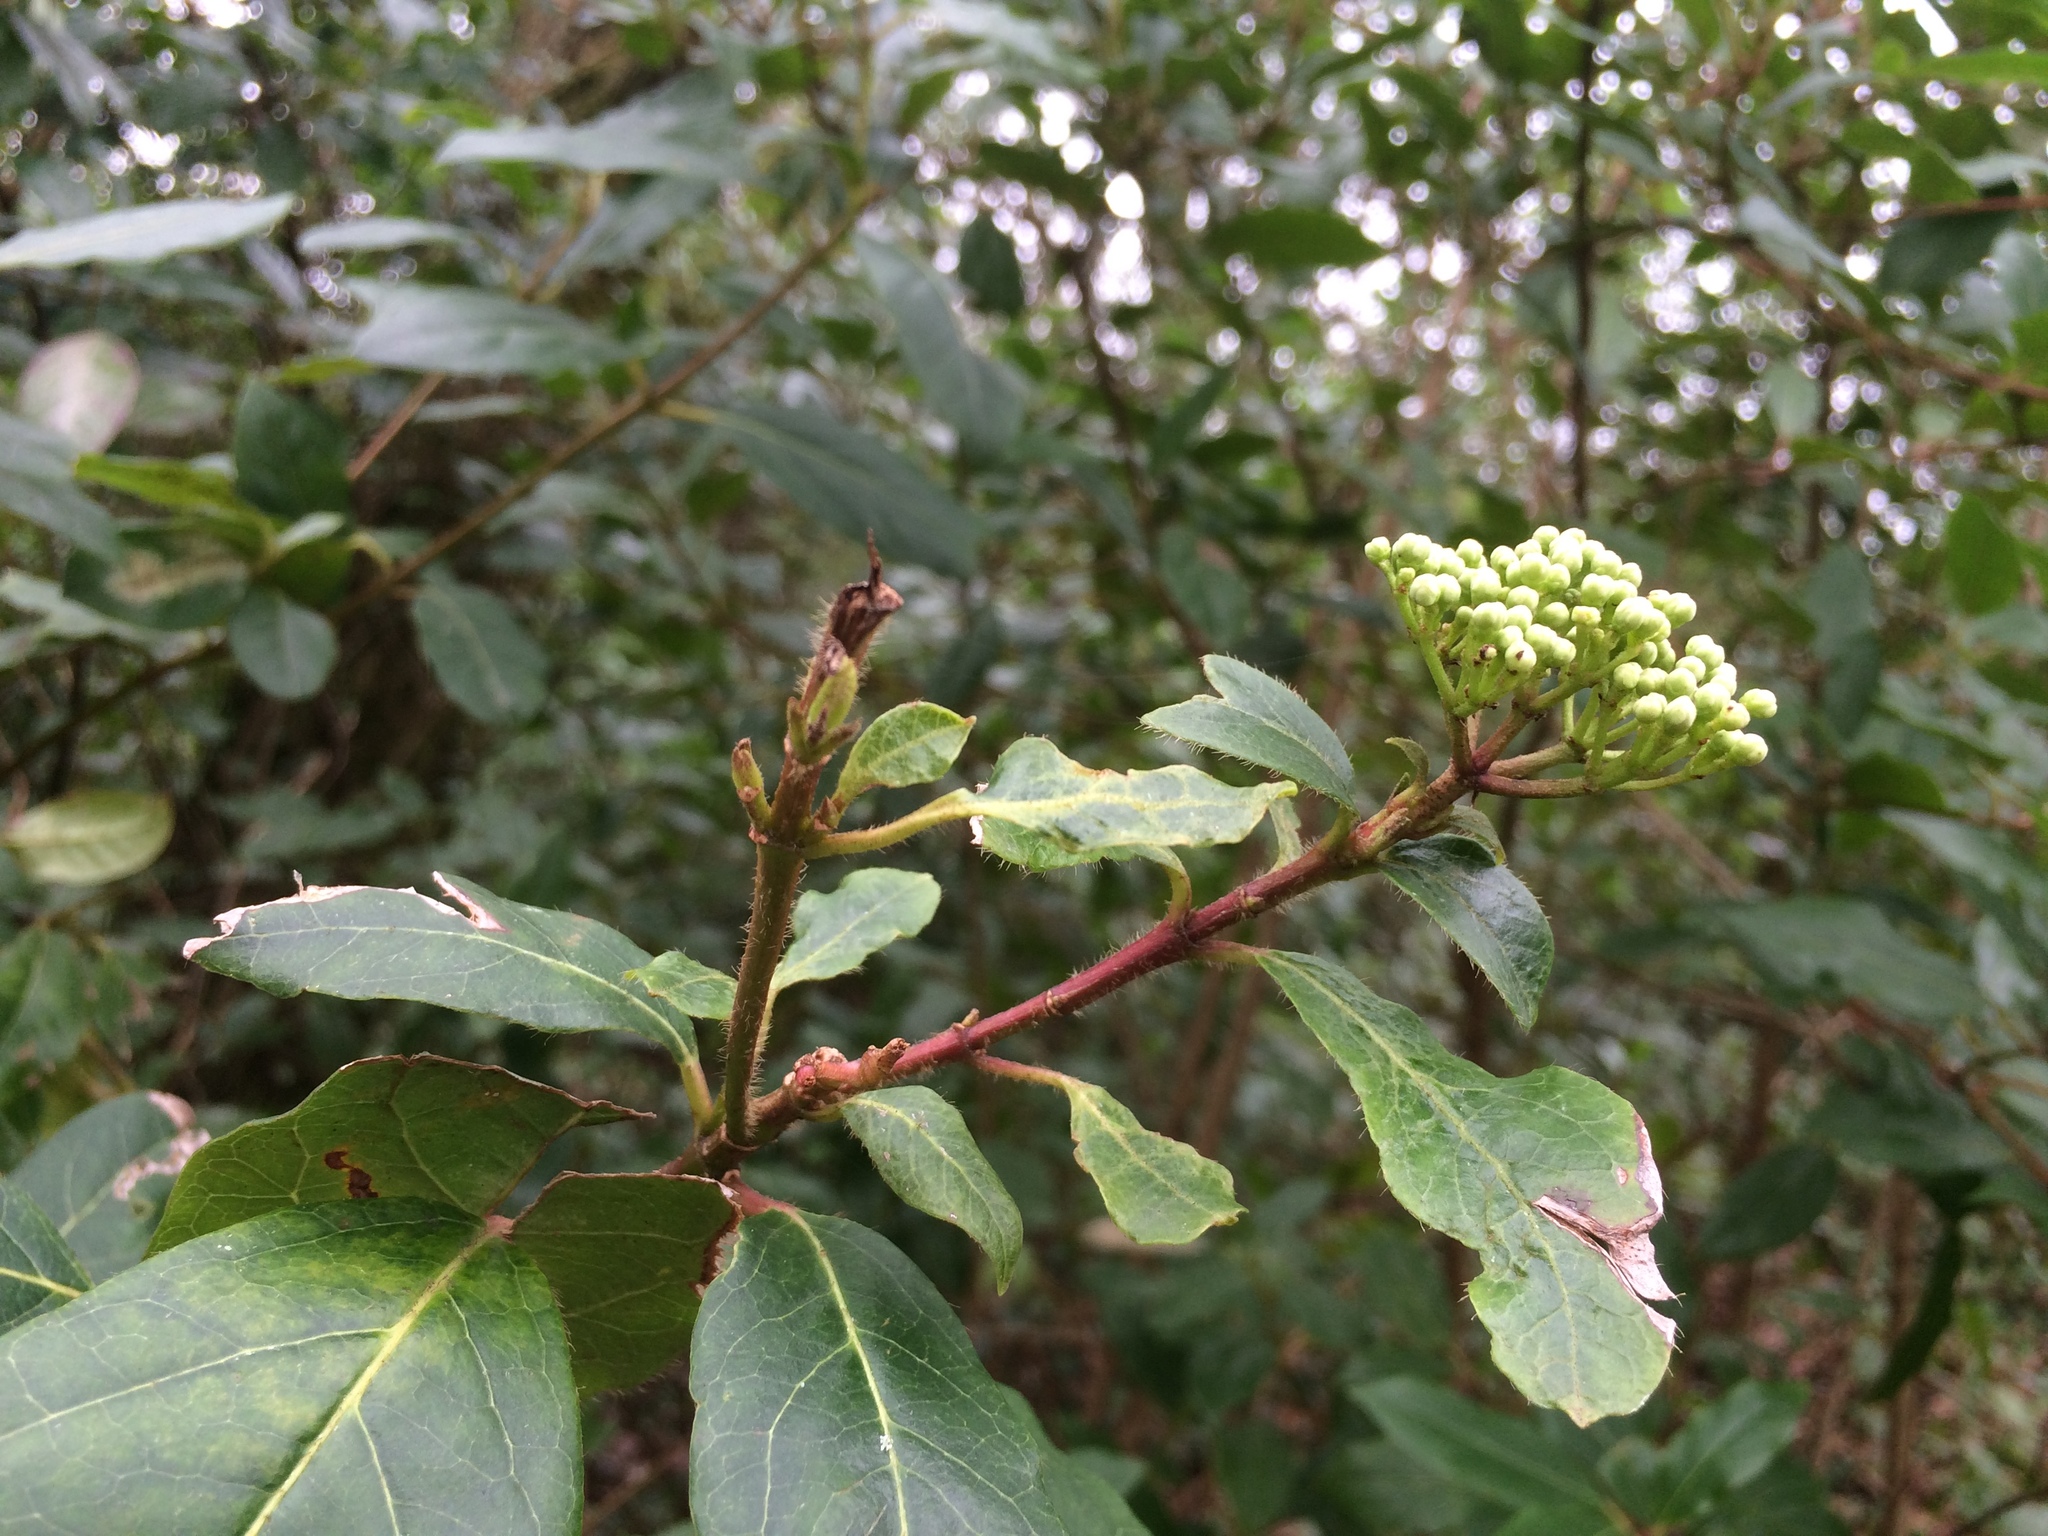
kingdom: Plantae
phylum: Tracheophyta
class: Magnoliopsida
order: Dipsacales
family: Viburnaceae
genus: Viburnum
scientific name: Viburnum tinus
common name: Laurustinus
